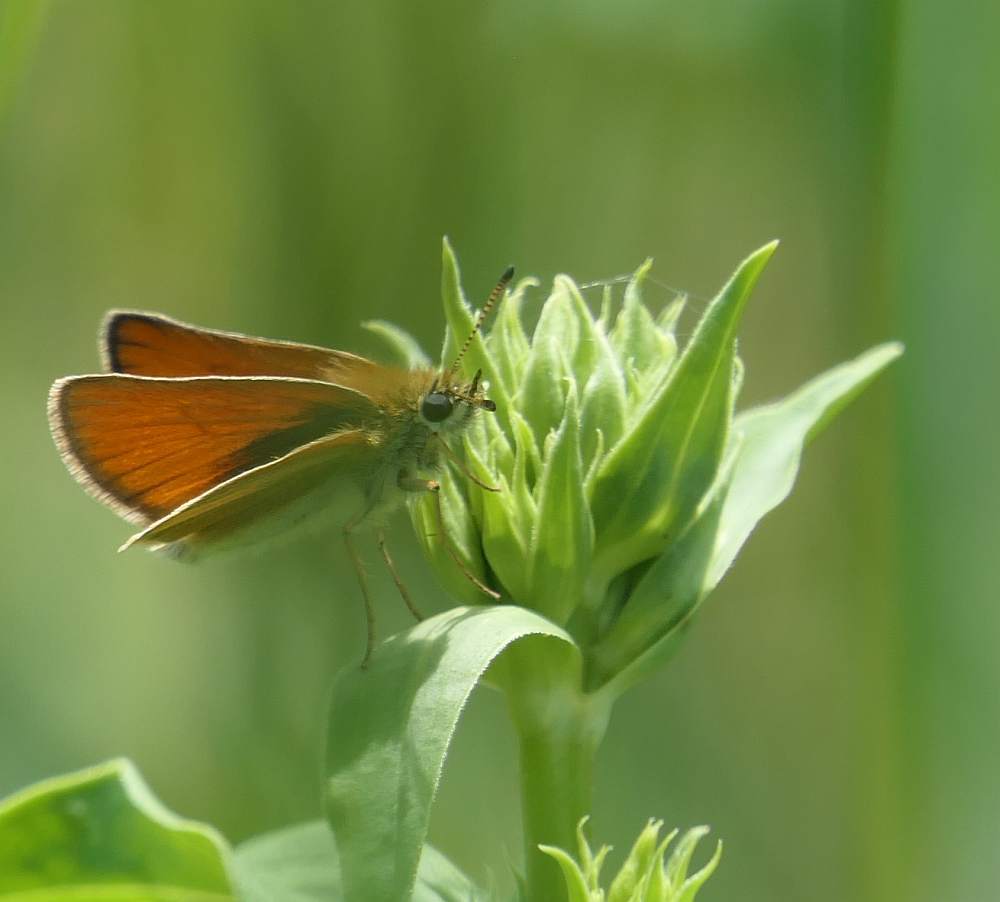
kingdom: Animalia
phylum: Arthropoda
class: Insecta
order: Lepidoptera
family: Hesperiidae
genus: Thymelicus
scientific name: Thymelicus lineola
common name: Essex skipper
